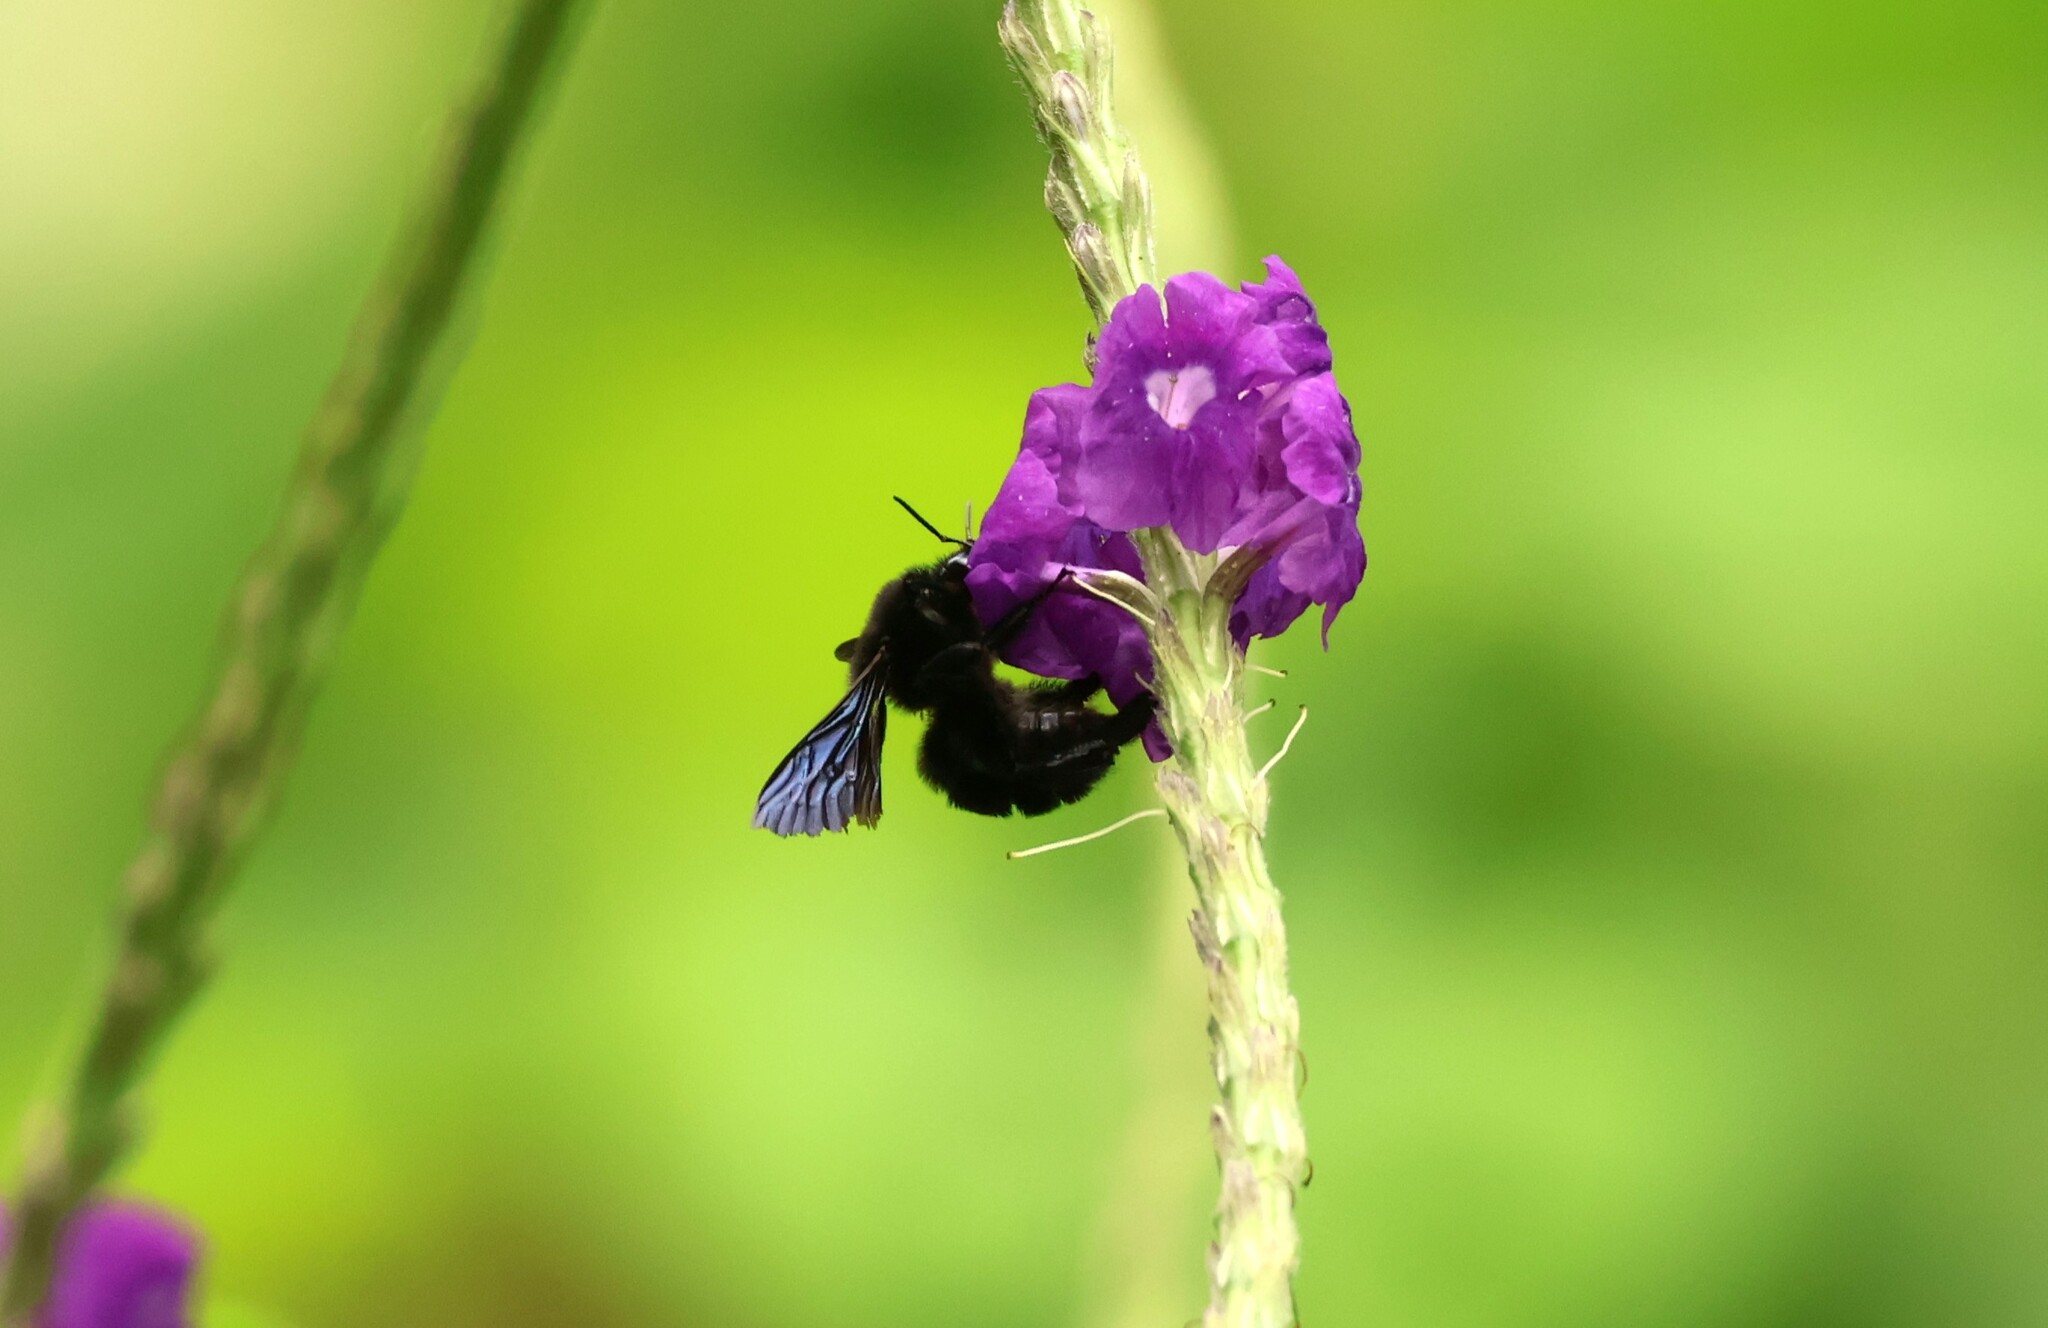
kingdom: Animalia
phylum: Arthropoda
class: Insecta
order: Hymenoptera
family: Apidae
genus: Bombus
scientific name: Bombus pullatus
